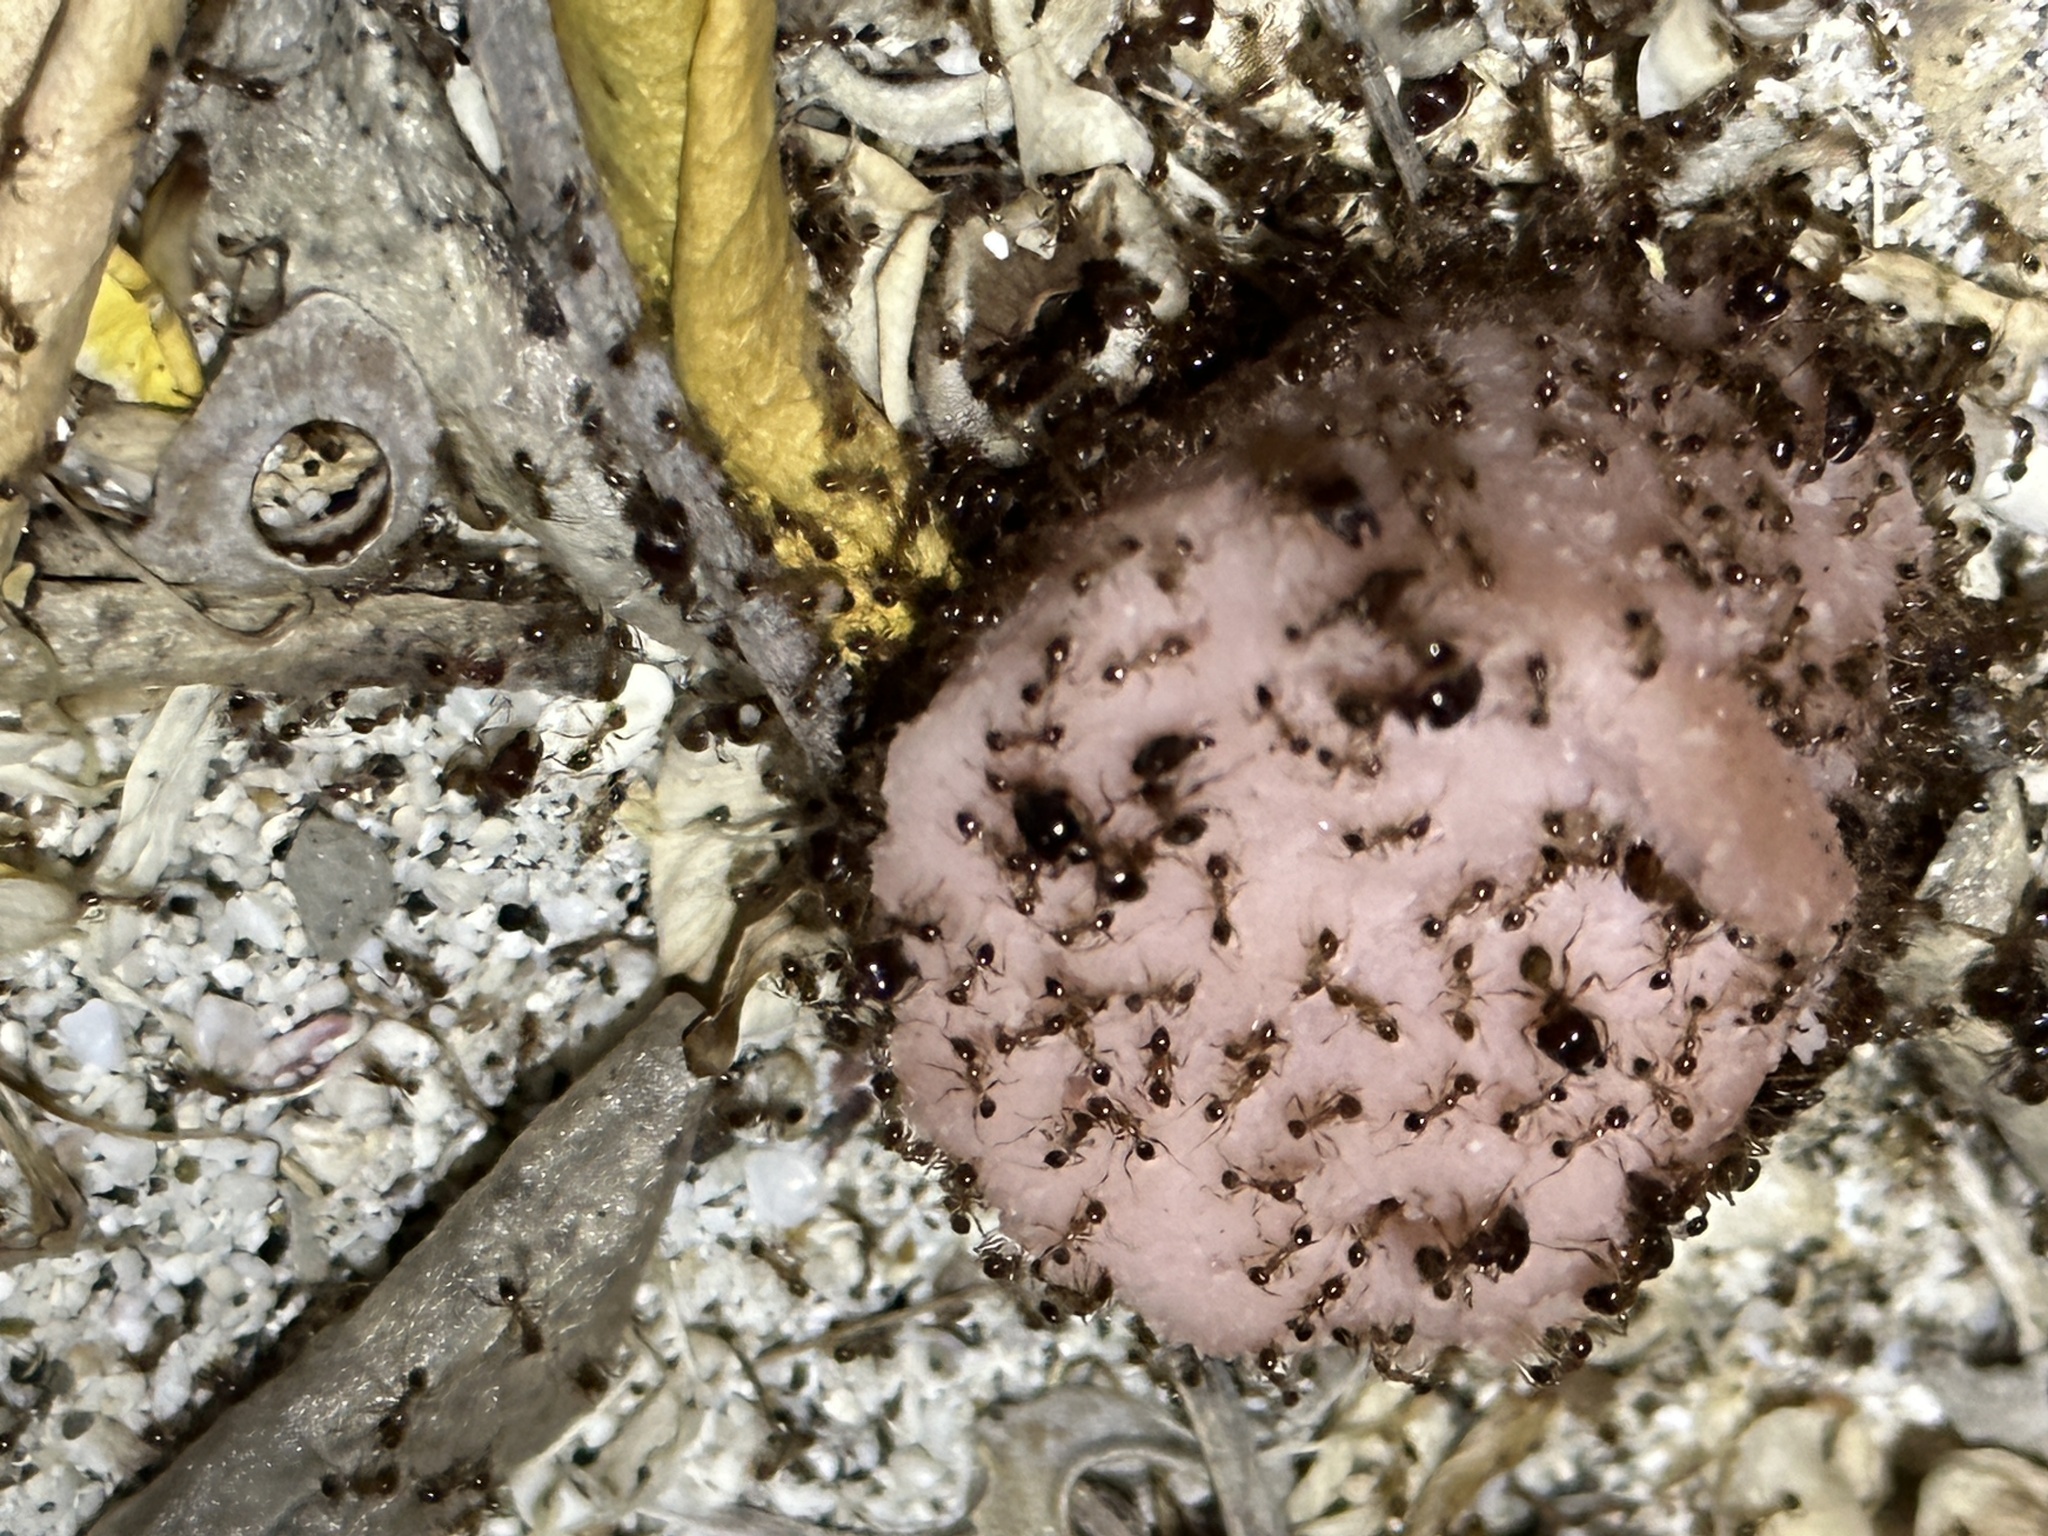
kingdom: Animalia
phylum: Arthropoda
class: Insecta
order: Hymenoptera
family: Formicidae
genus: Pheidole
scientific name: Pheidole megacephala
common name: Bigheaded ant
